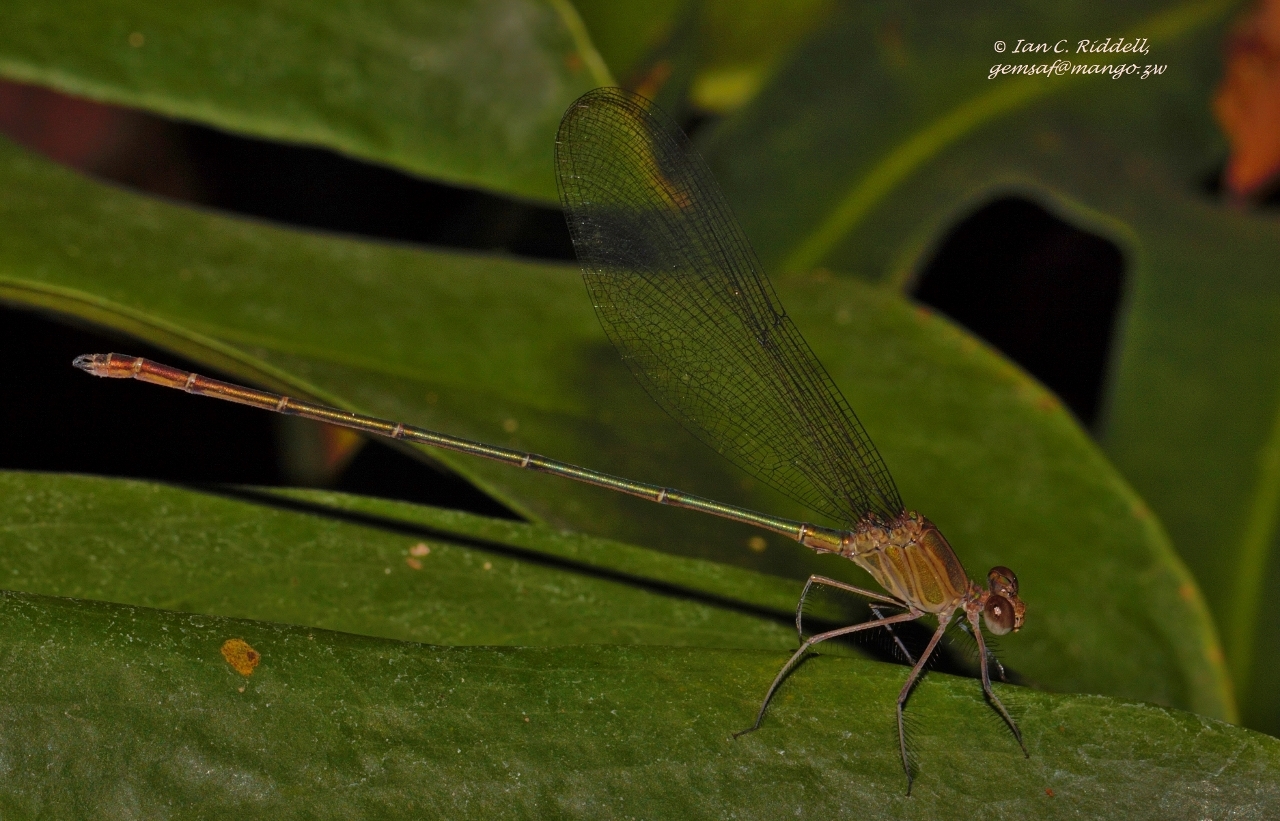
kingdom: Animalia
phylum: Arthropoda
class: Insecta
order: Odonata
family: Calopterygidae
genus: Phaon
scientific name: Phaon iridipennis
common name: Glistening demoiselle
